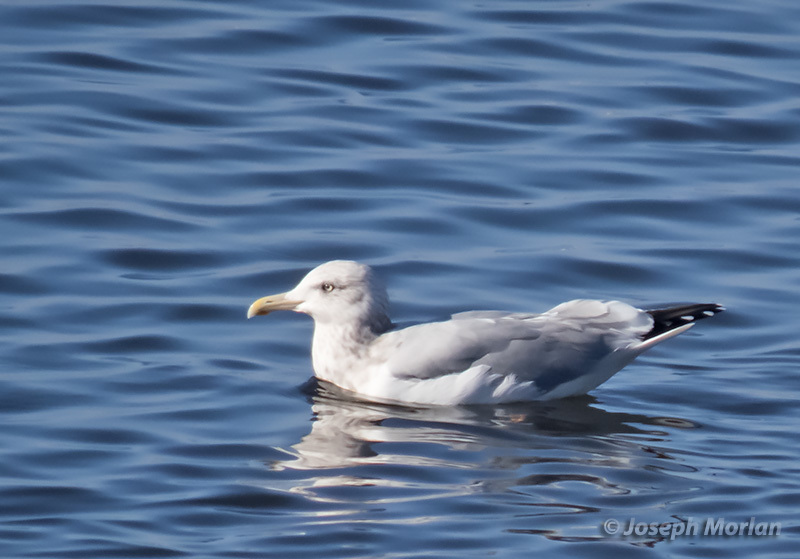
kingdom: Animalia
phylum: Chordata
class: Aves
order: Charadriiformes
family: Laridae
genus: Larus
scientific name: Larus argentatus
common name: Herring gull
